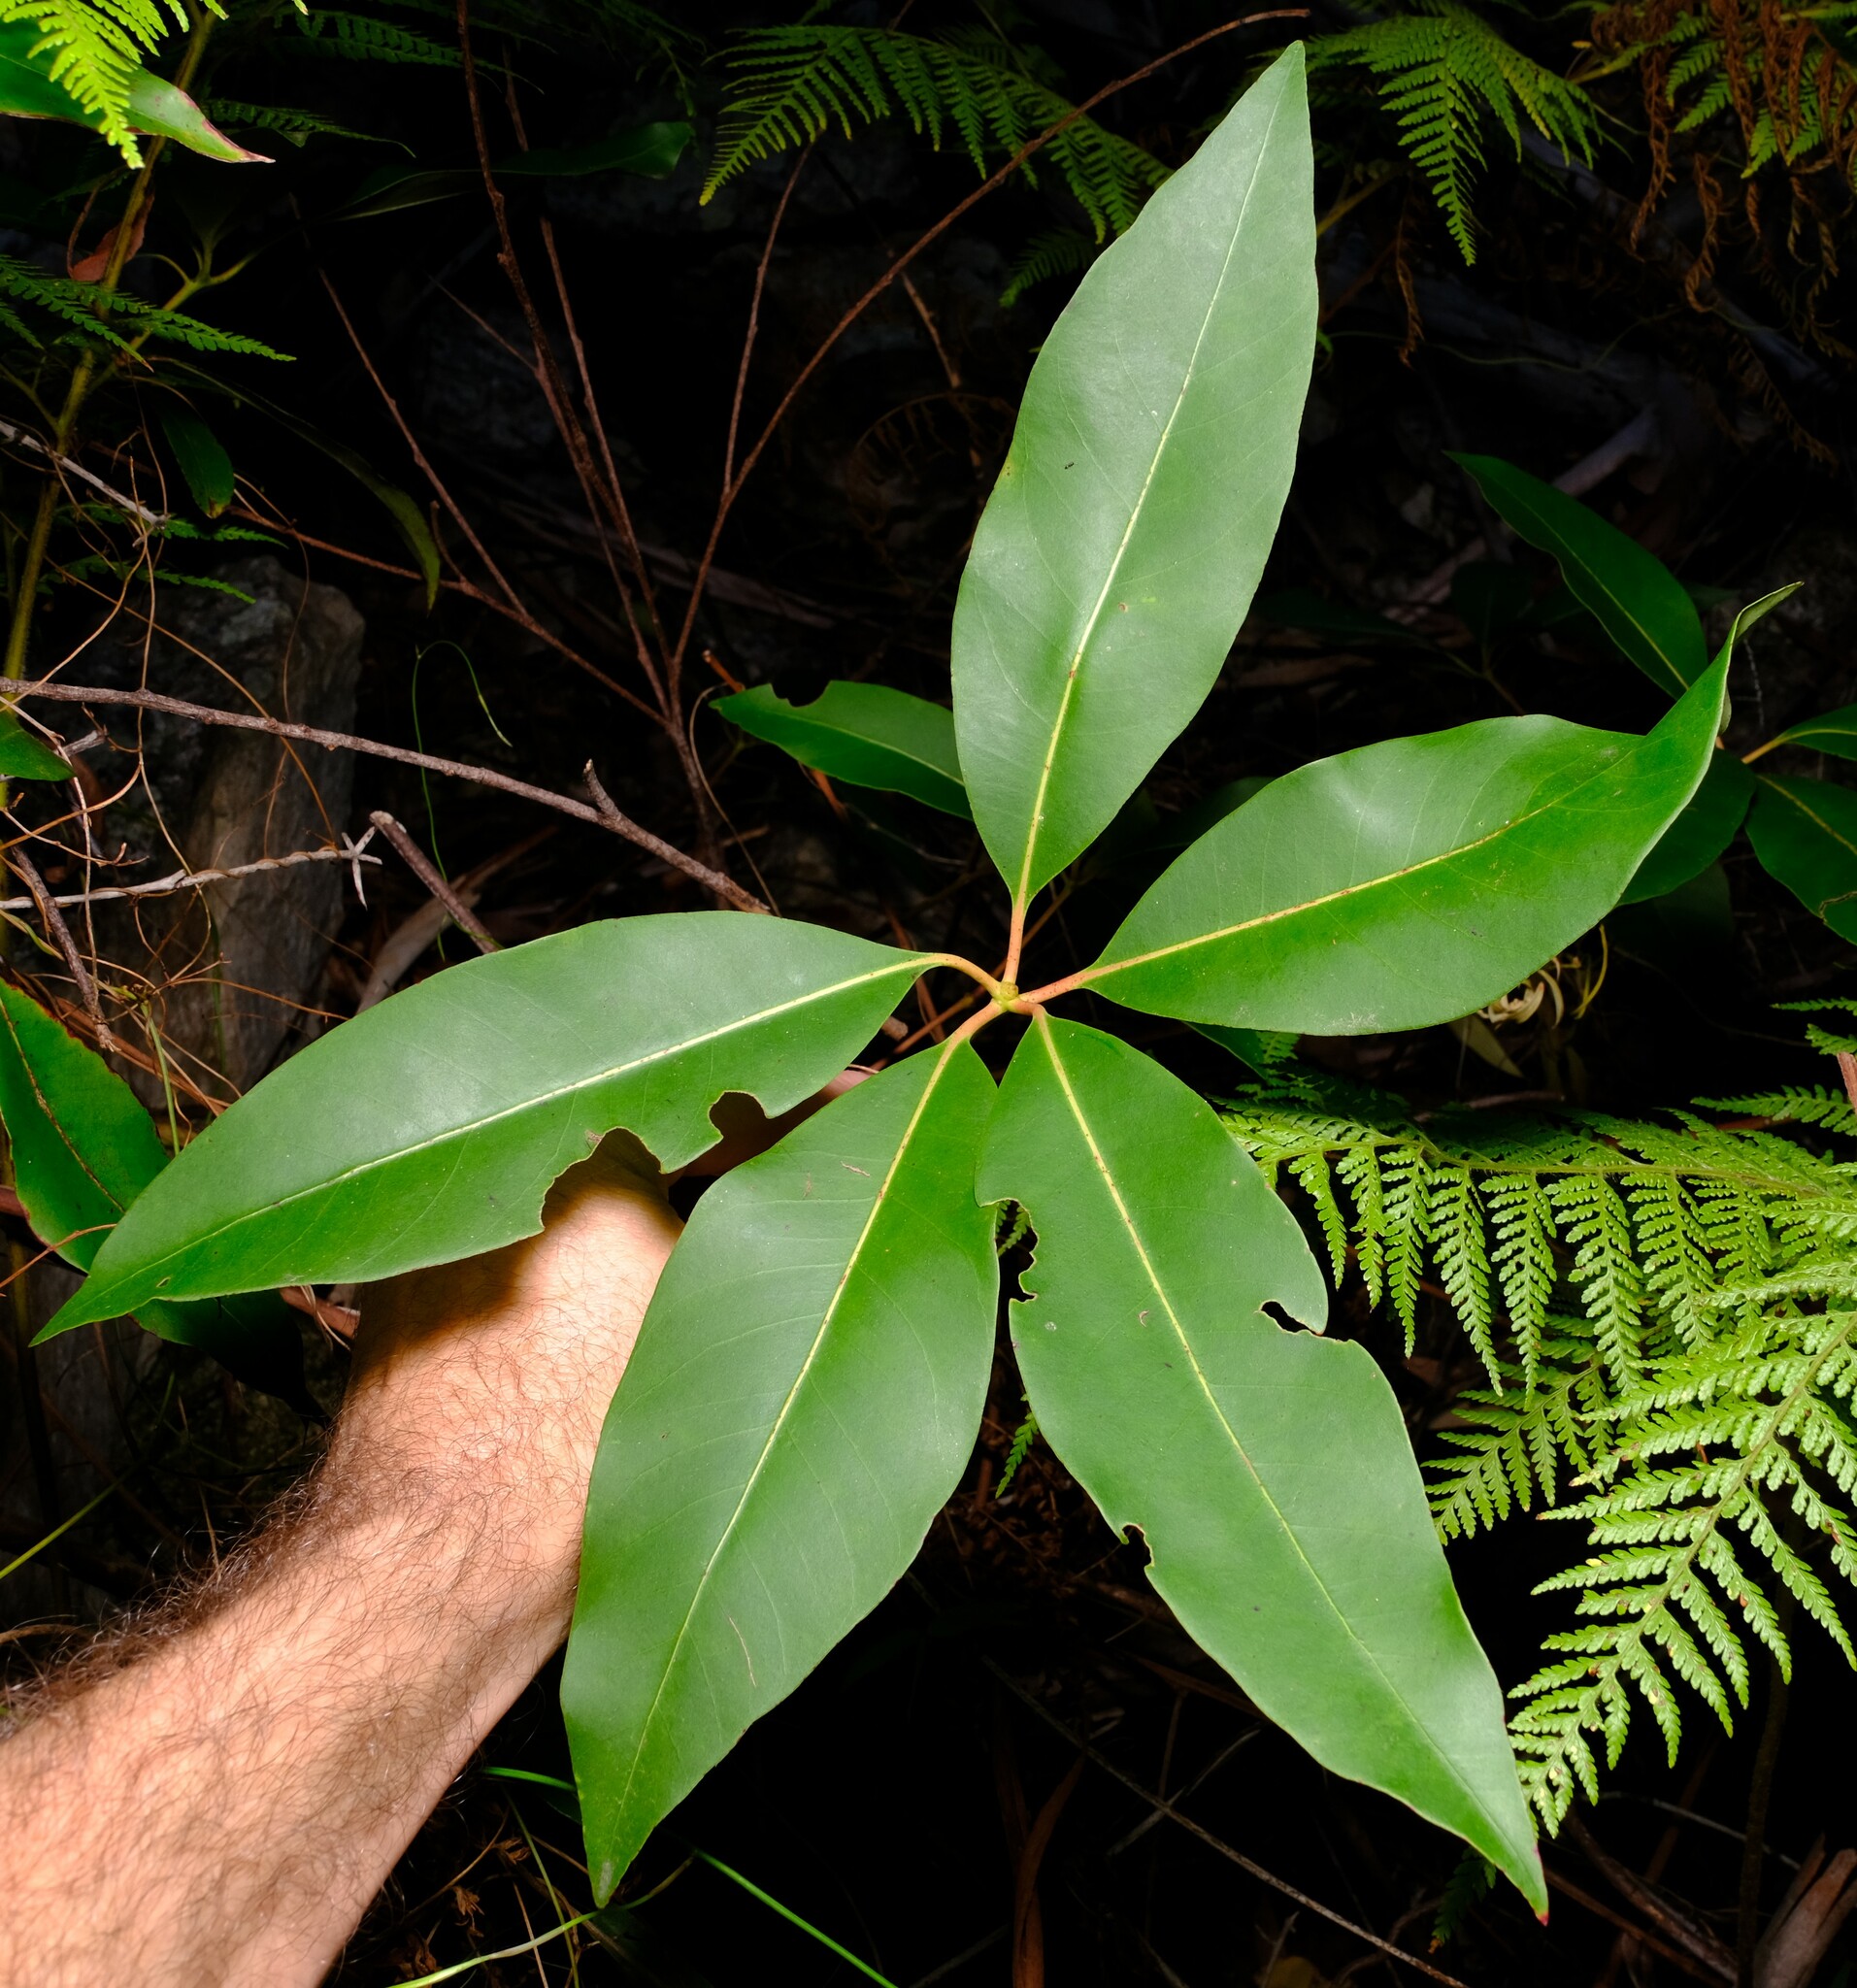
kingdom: Plantae
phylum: Tracheophyta
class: Magnoliopsida
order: Myrtales
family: Myrtaceae
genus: Lophostemon
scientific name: Lophostemon confertus
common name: Brisbane box
